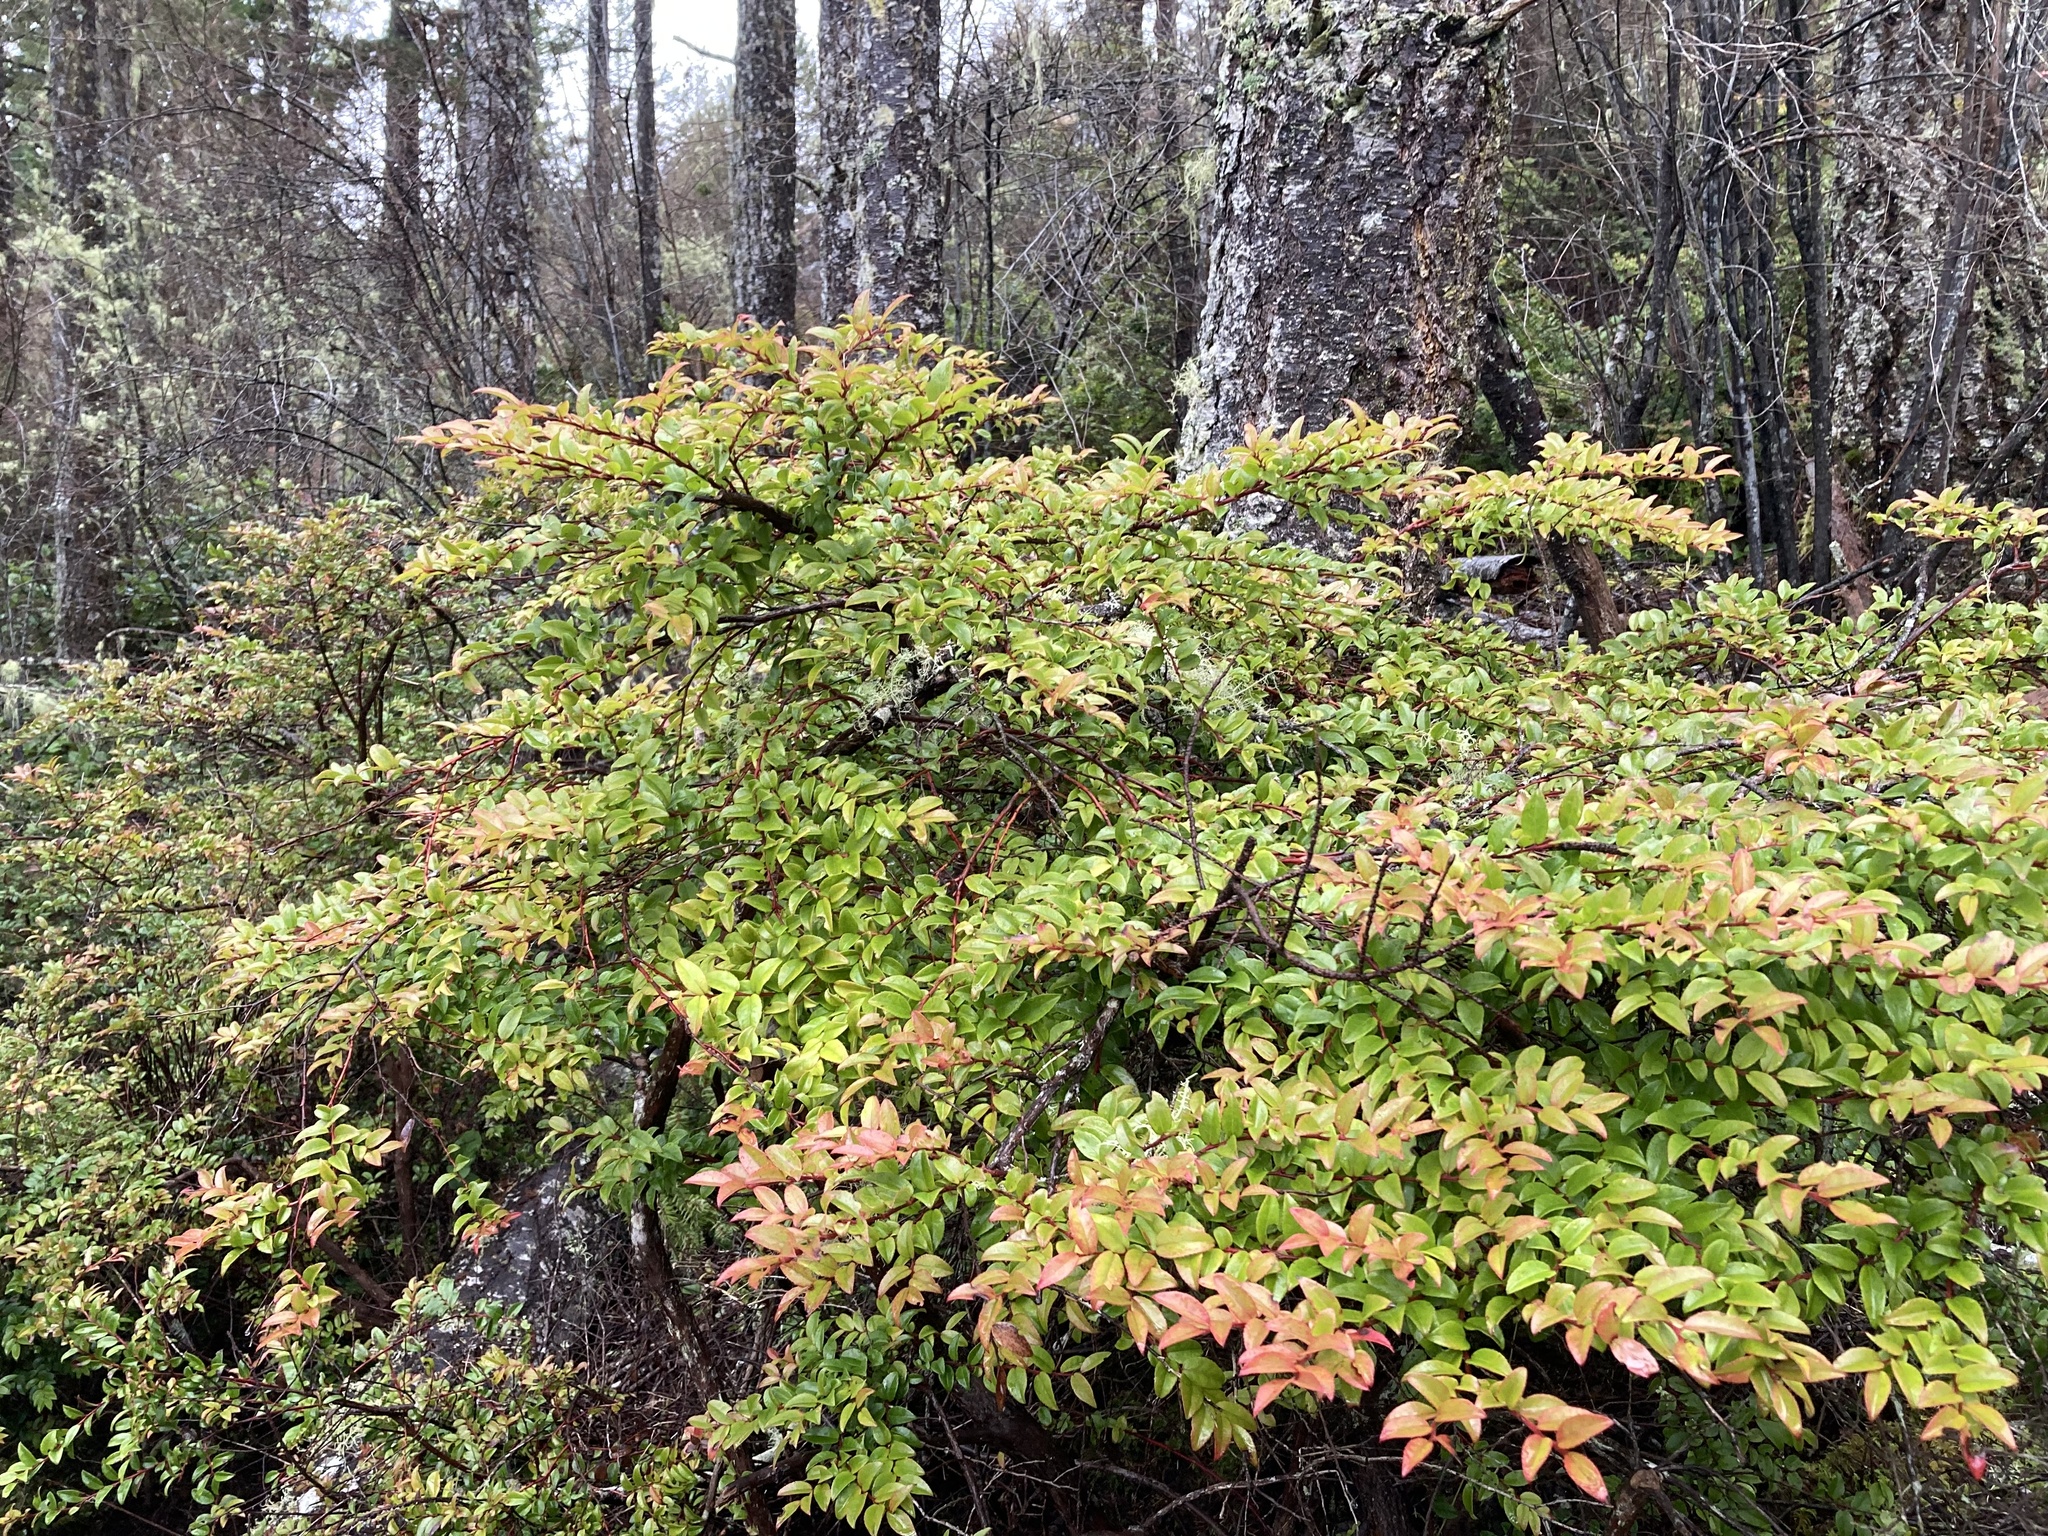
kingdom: Plantae
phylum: Tracheophyta
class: Magnoliopsida
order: Ericales
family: Ericaceae
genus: Vaccinium
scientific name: Vaccinium ovatum
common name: California-huckleberry
